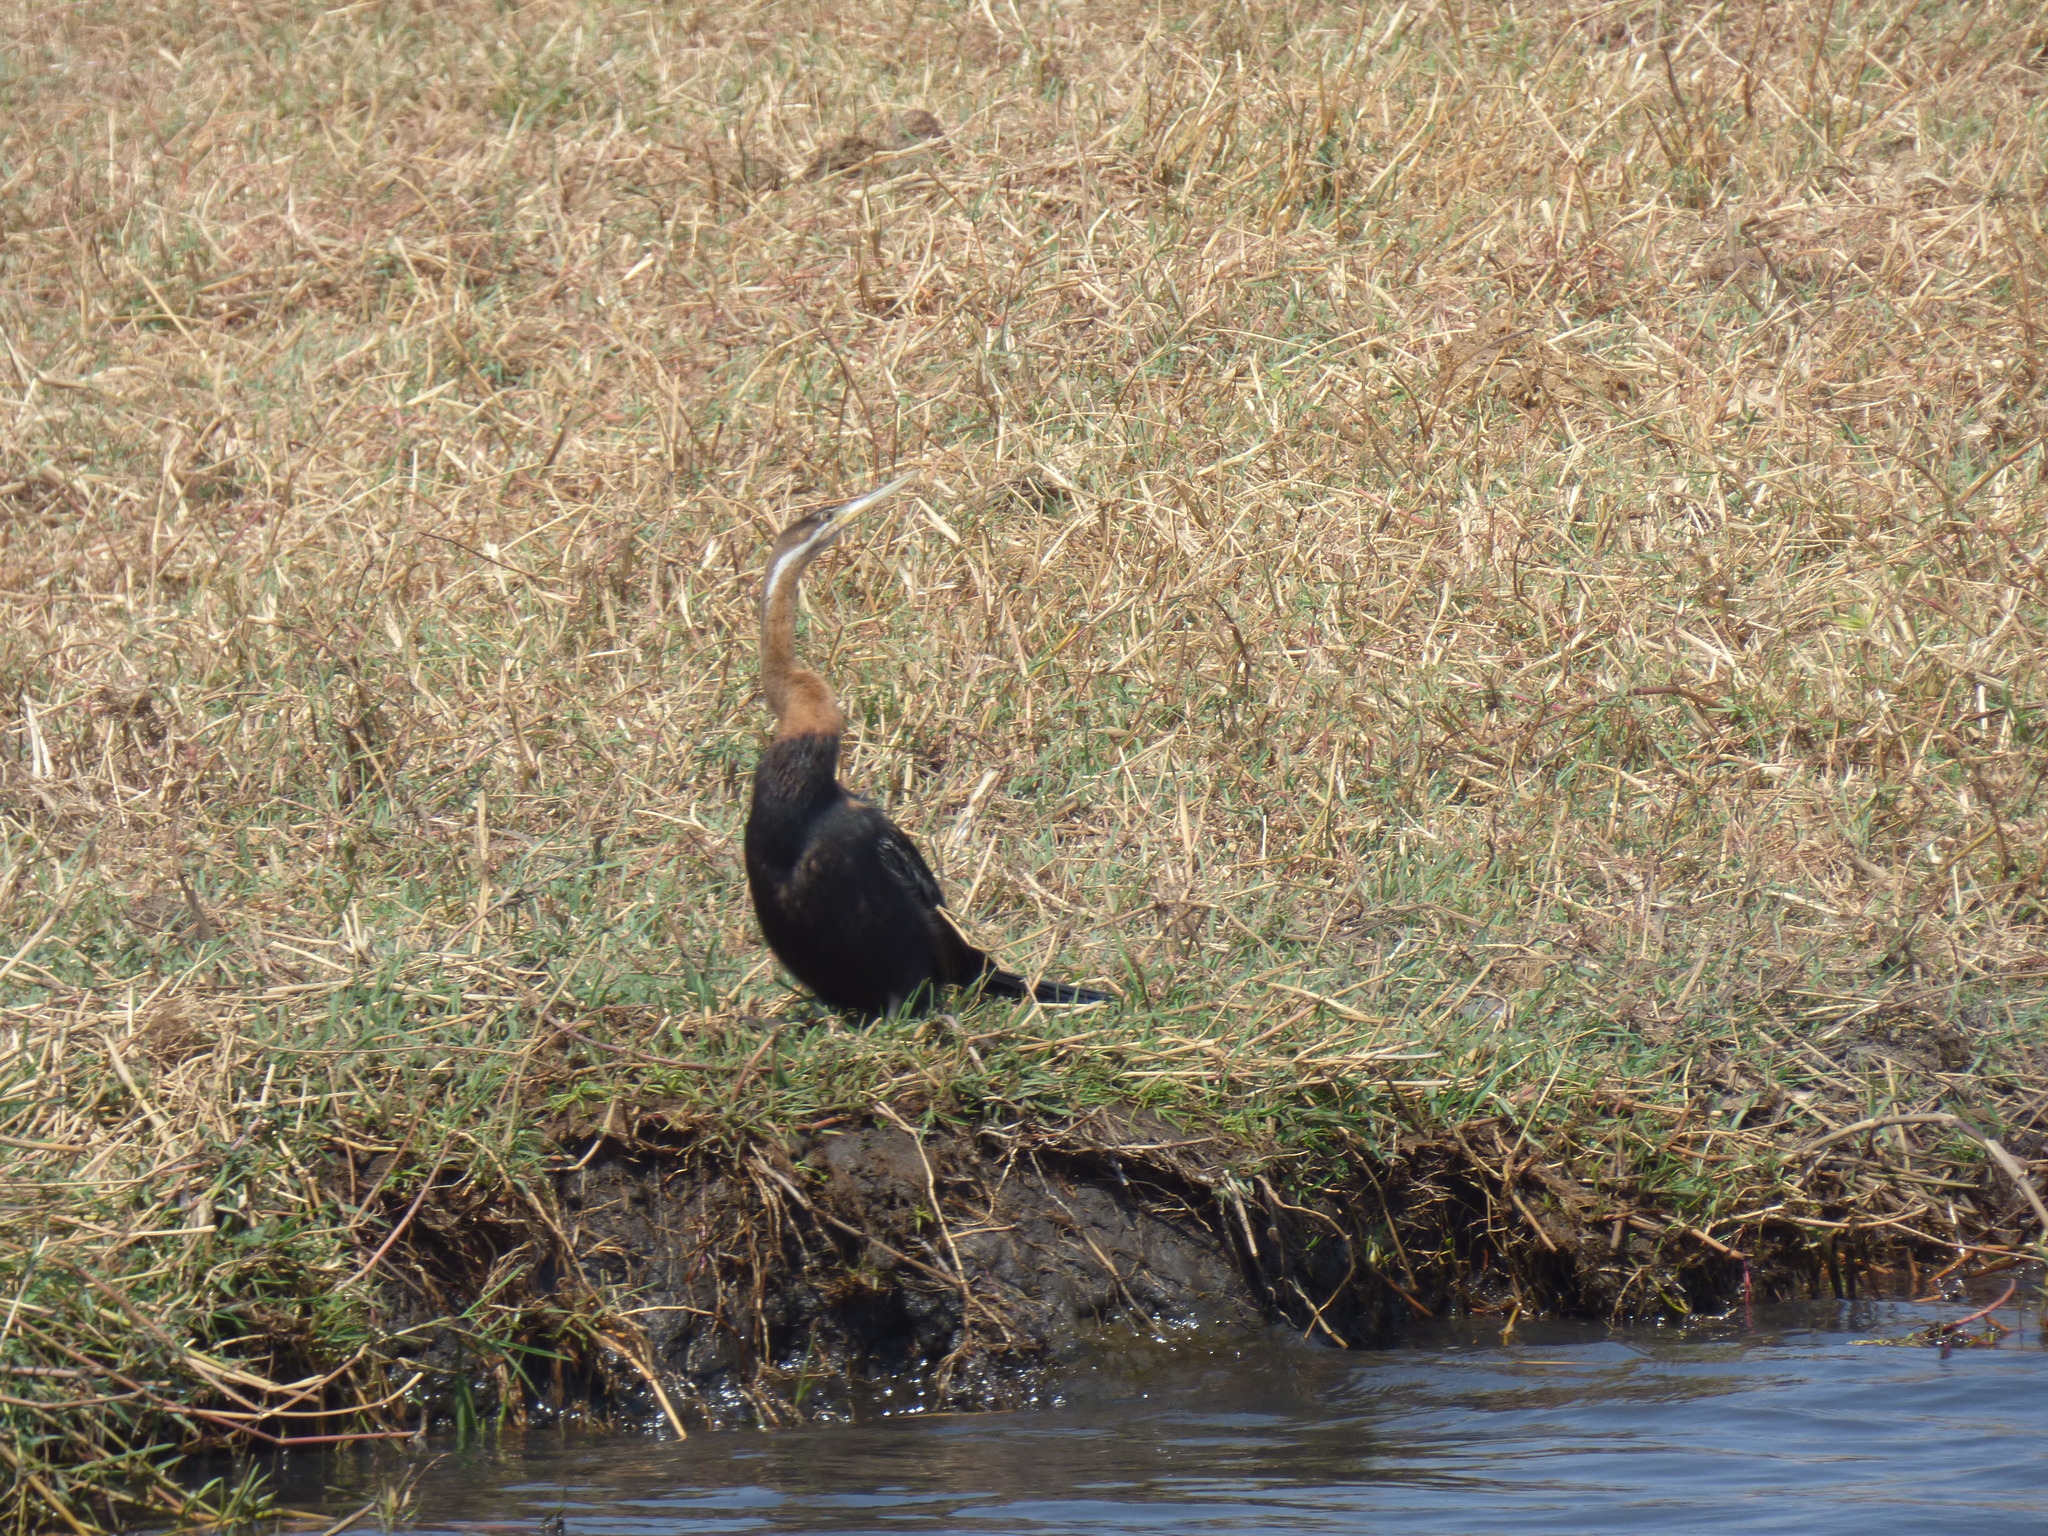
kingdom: Animalia
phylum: Chordata
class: Aves
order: Suliformes
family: Anhingidae
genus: Anhinga
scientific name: Anhinga rufa
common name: African darter
